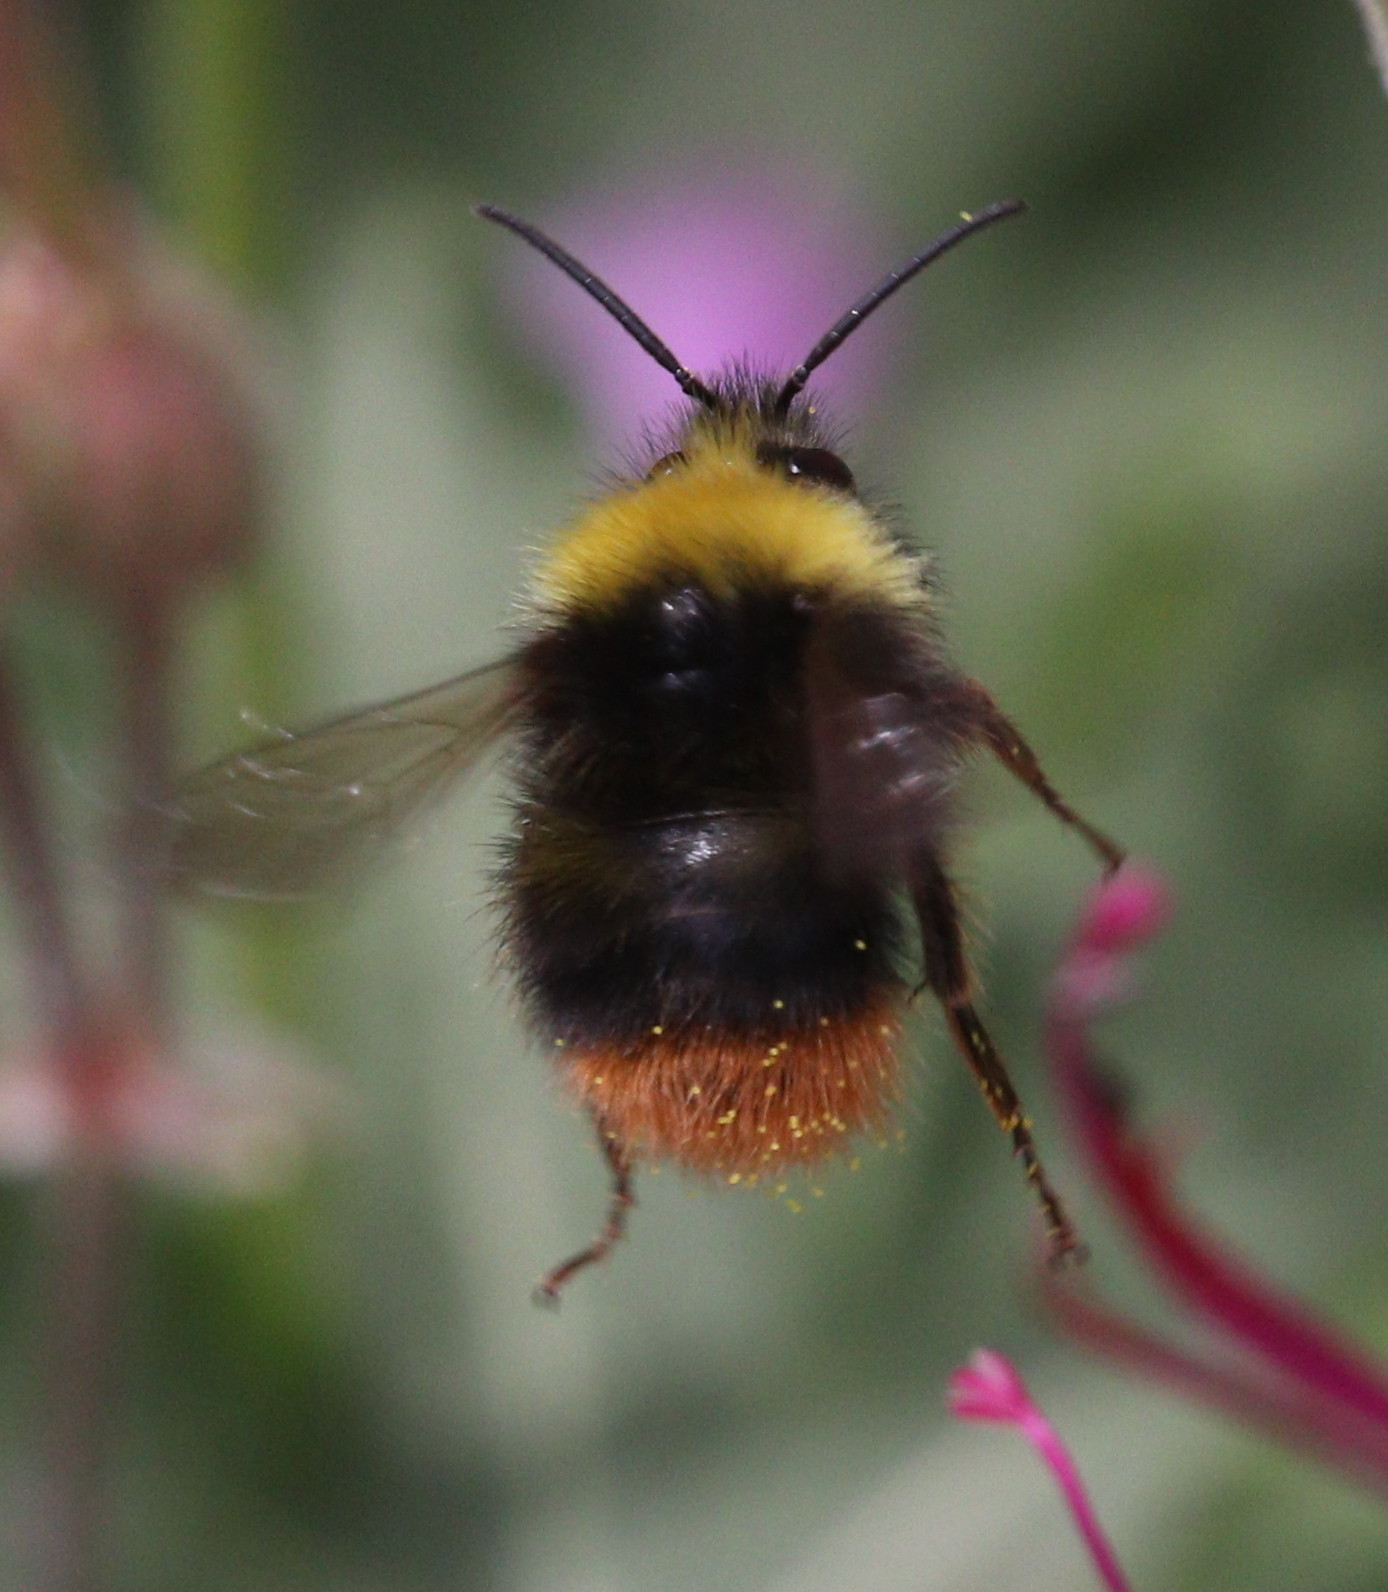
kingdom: Animalia
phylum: Arthropoda
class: Insecta
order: Hymenoptera
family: Apidae
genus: Bombus
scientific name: Bombus pratorum
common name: Early humble-bee
